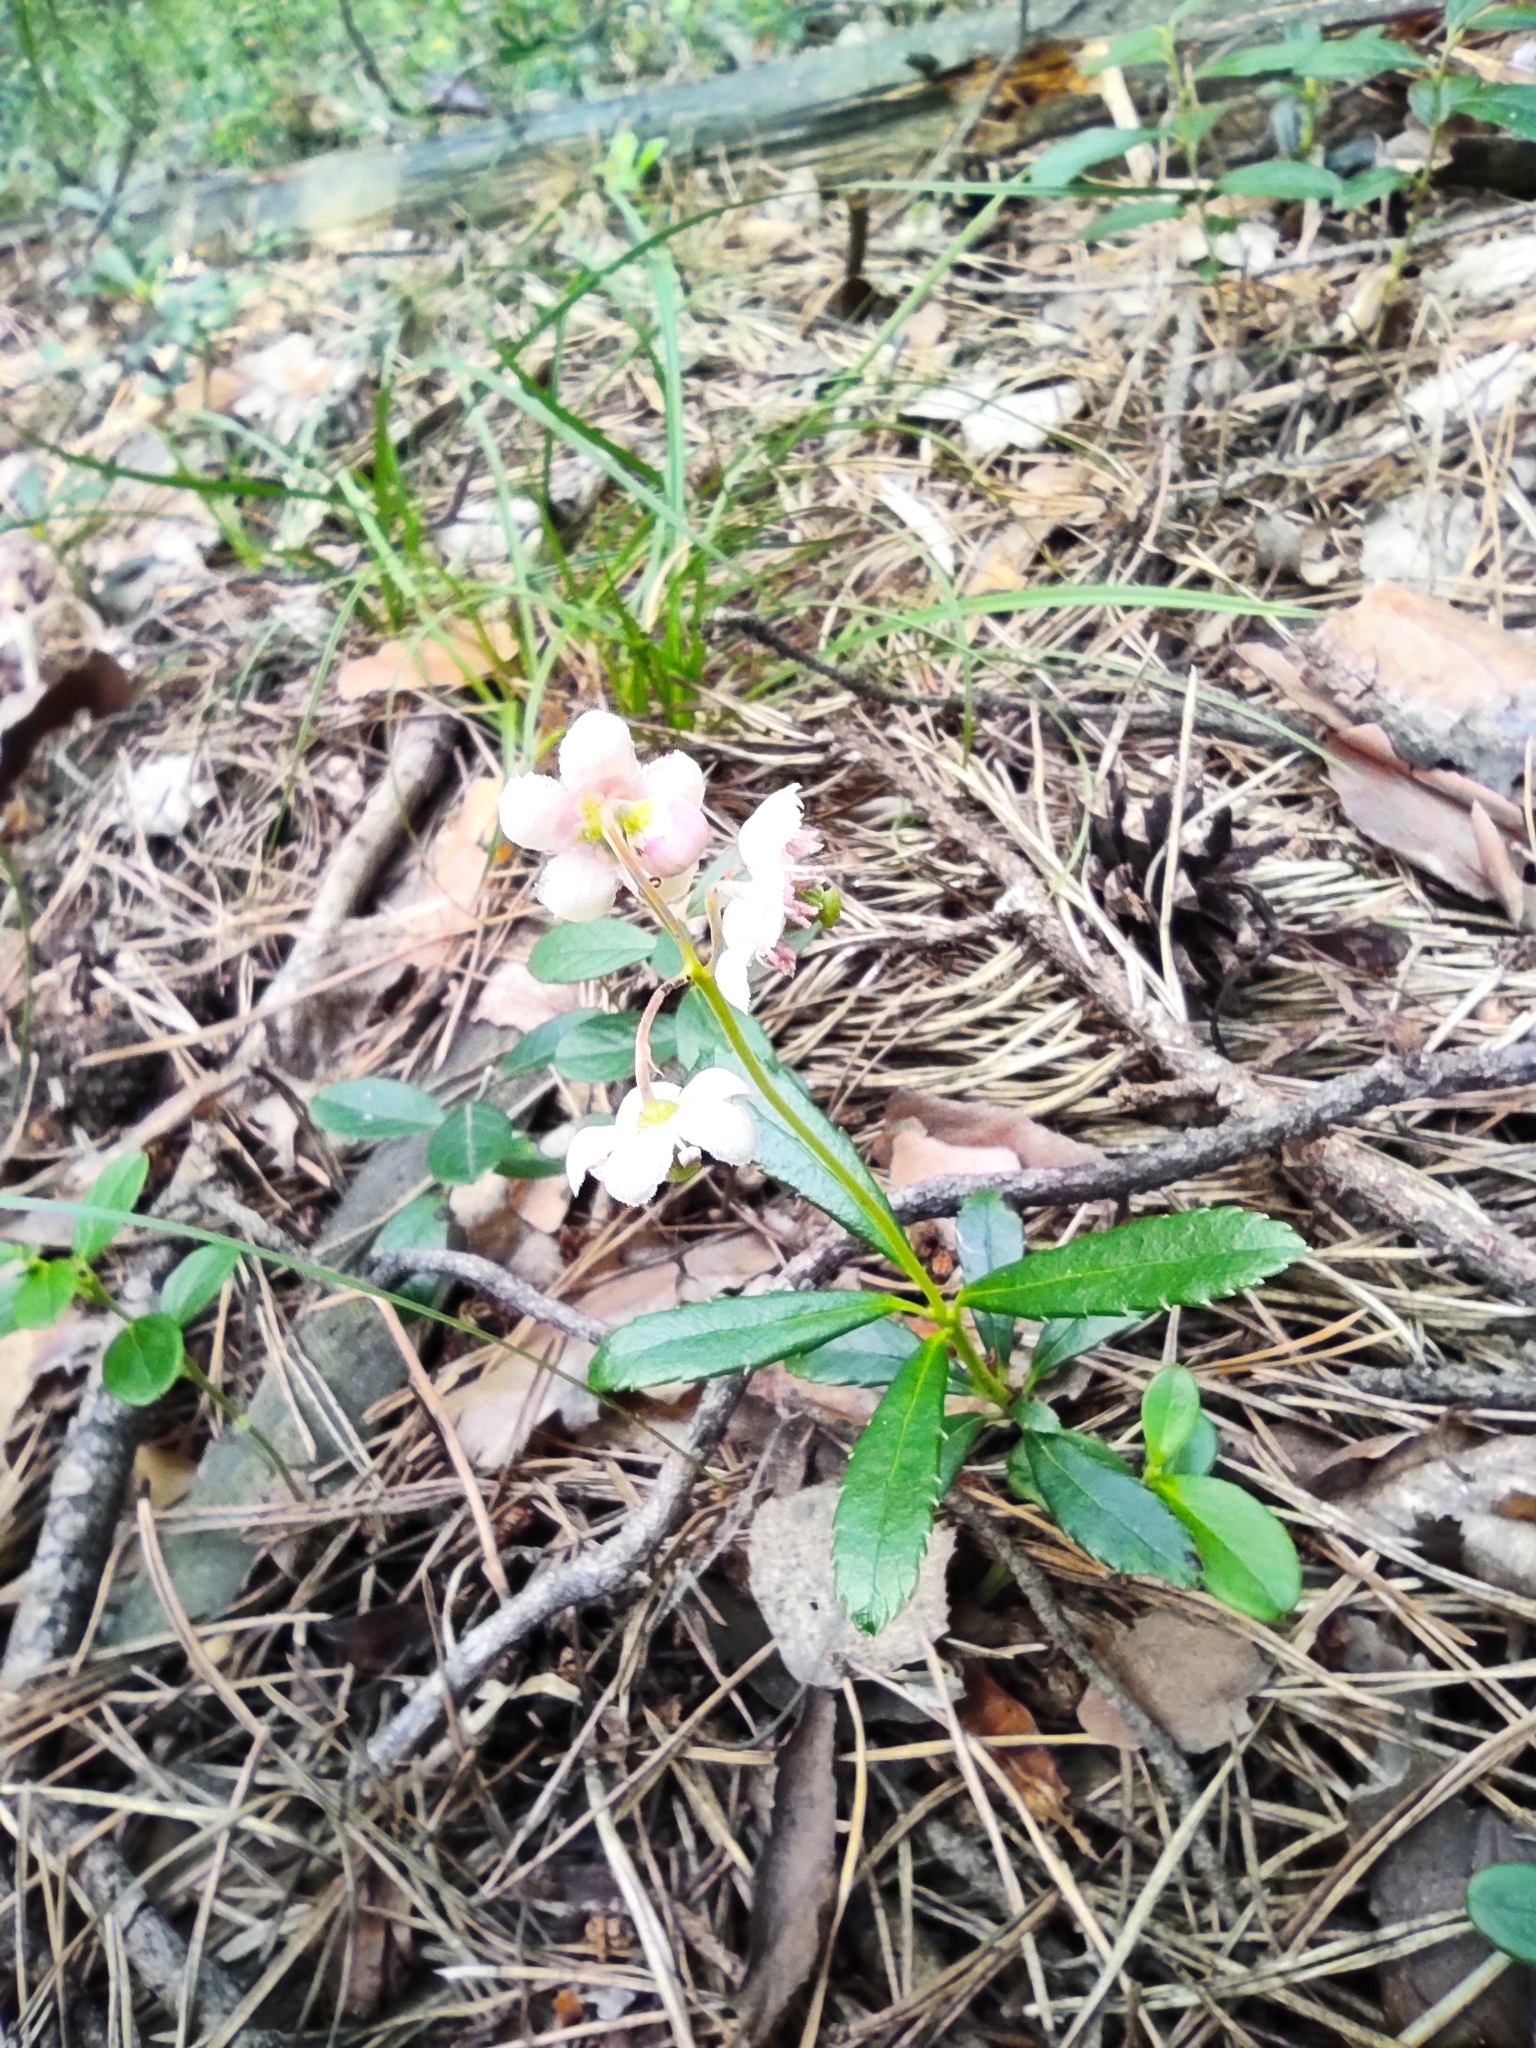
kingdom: Plantae
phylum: Tracheophyta
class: Magnoliopsida
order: Ericales
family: Ericaceae
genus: Chimaphila
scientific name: Chimaphila umbellata
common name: Pipsissewa
